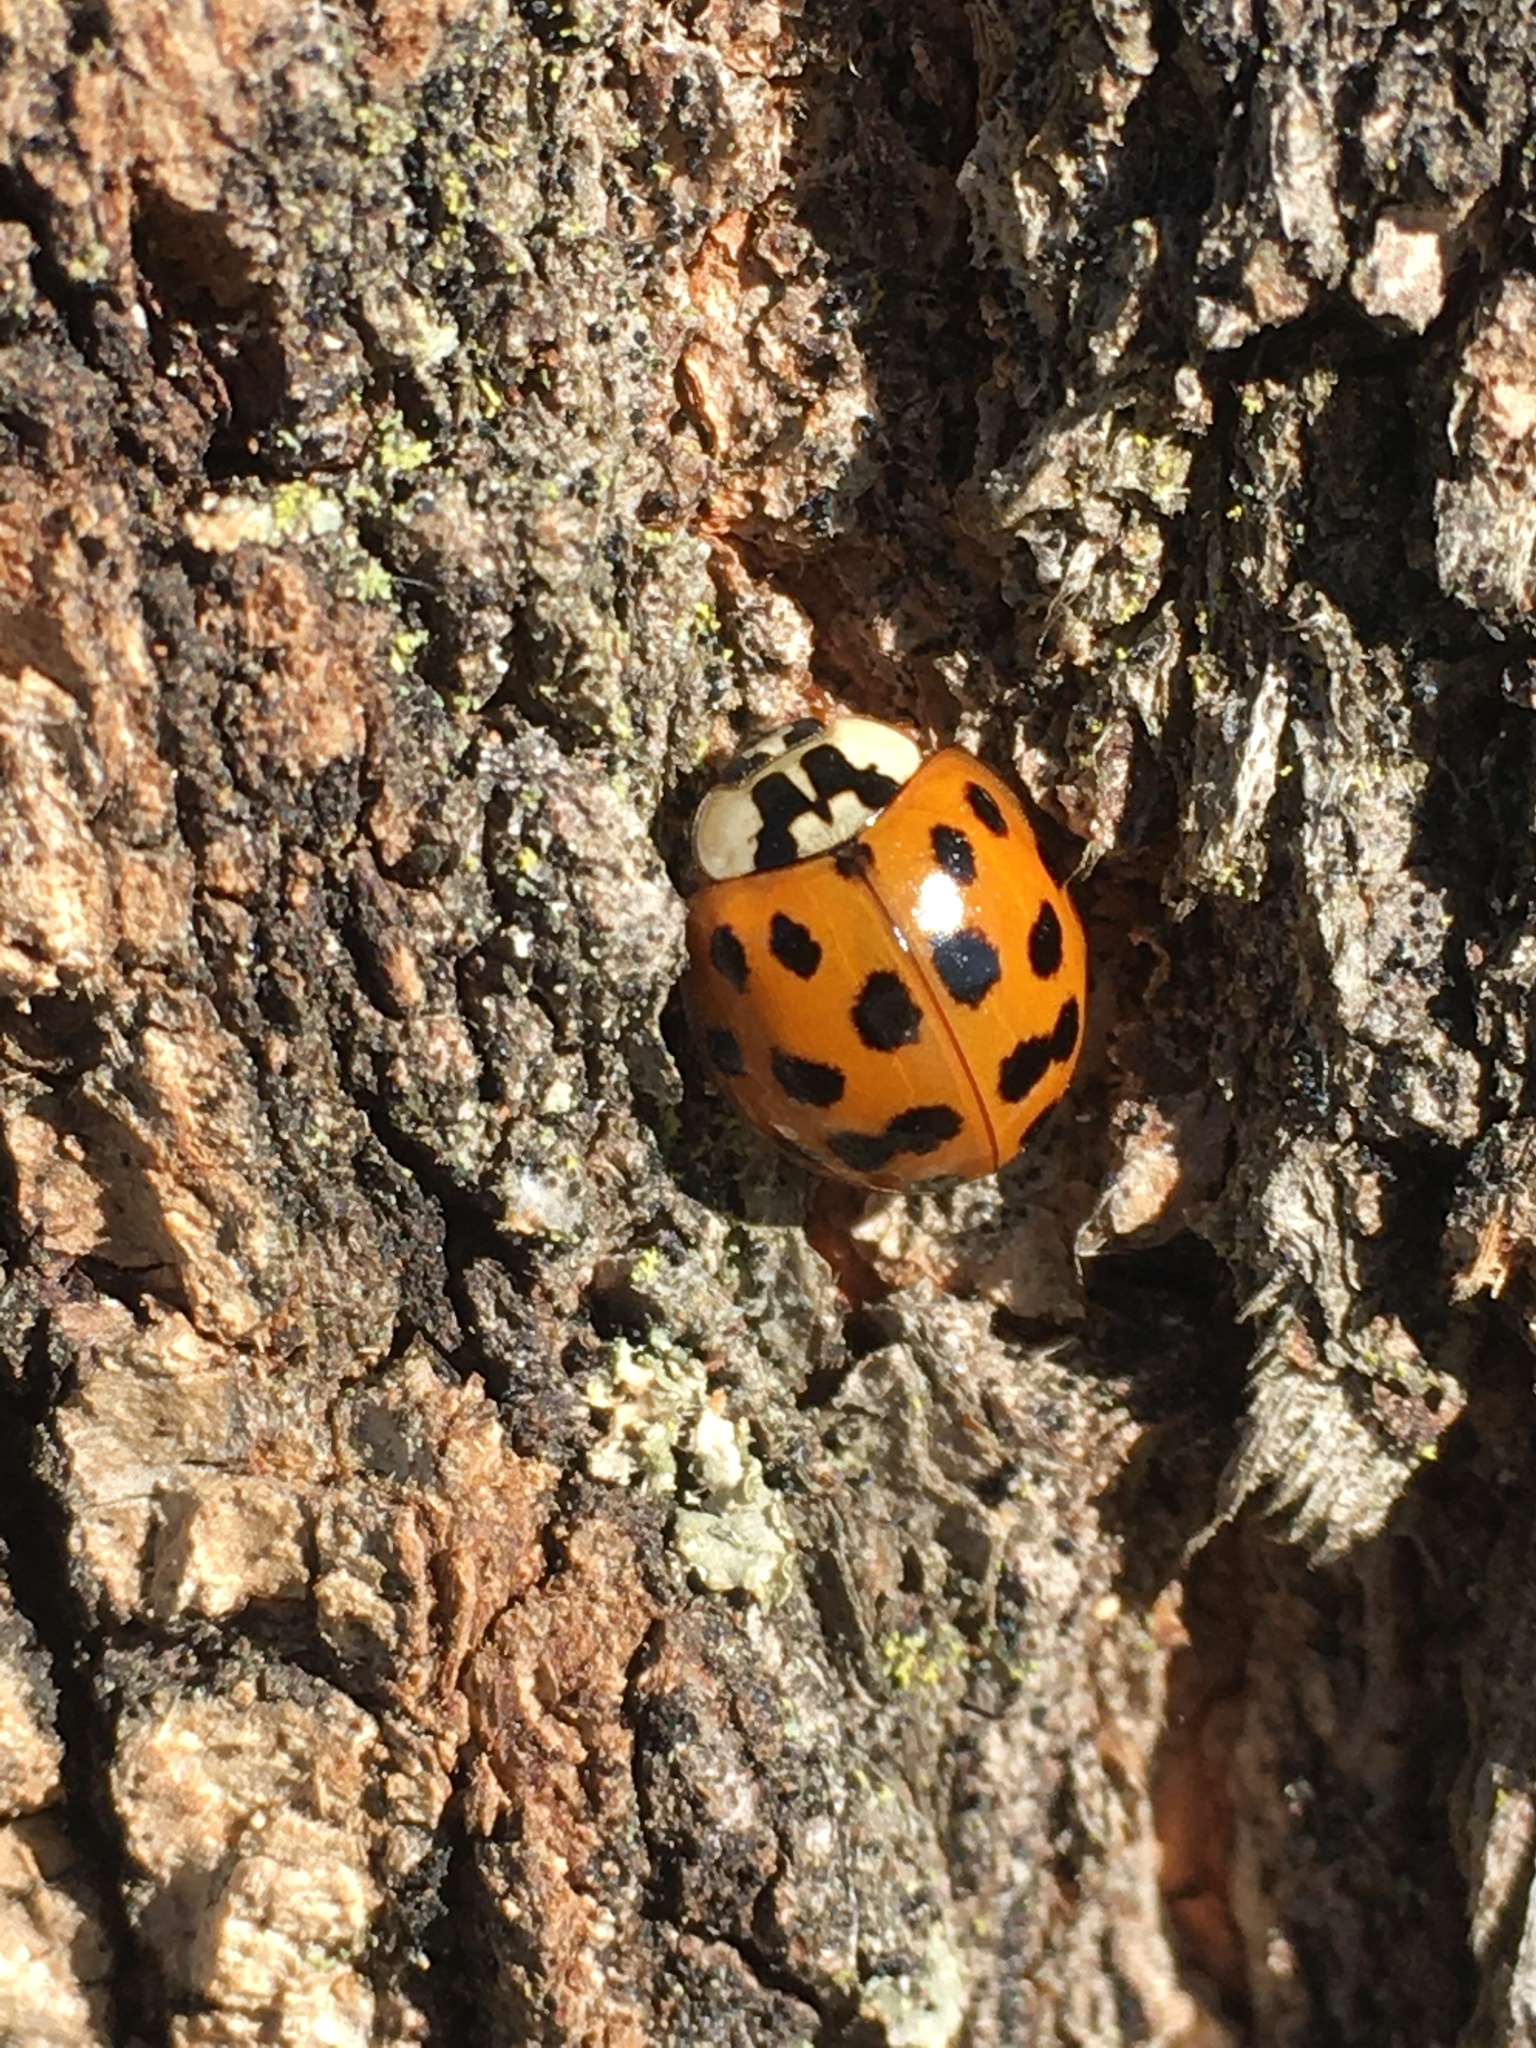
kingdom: Animalia
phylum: Arthropoda
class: Insecta
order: Coleoptera
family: Coccinellidae
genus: Harmonia
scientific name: Harmonia axyridis
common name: Harlequin ladybird
